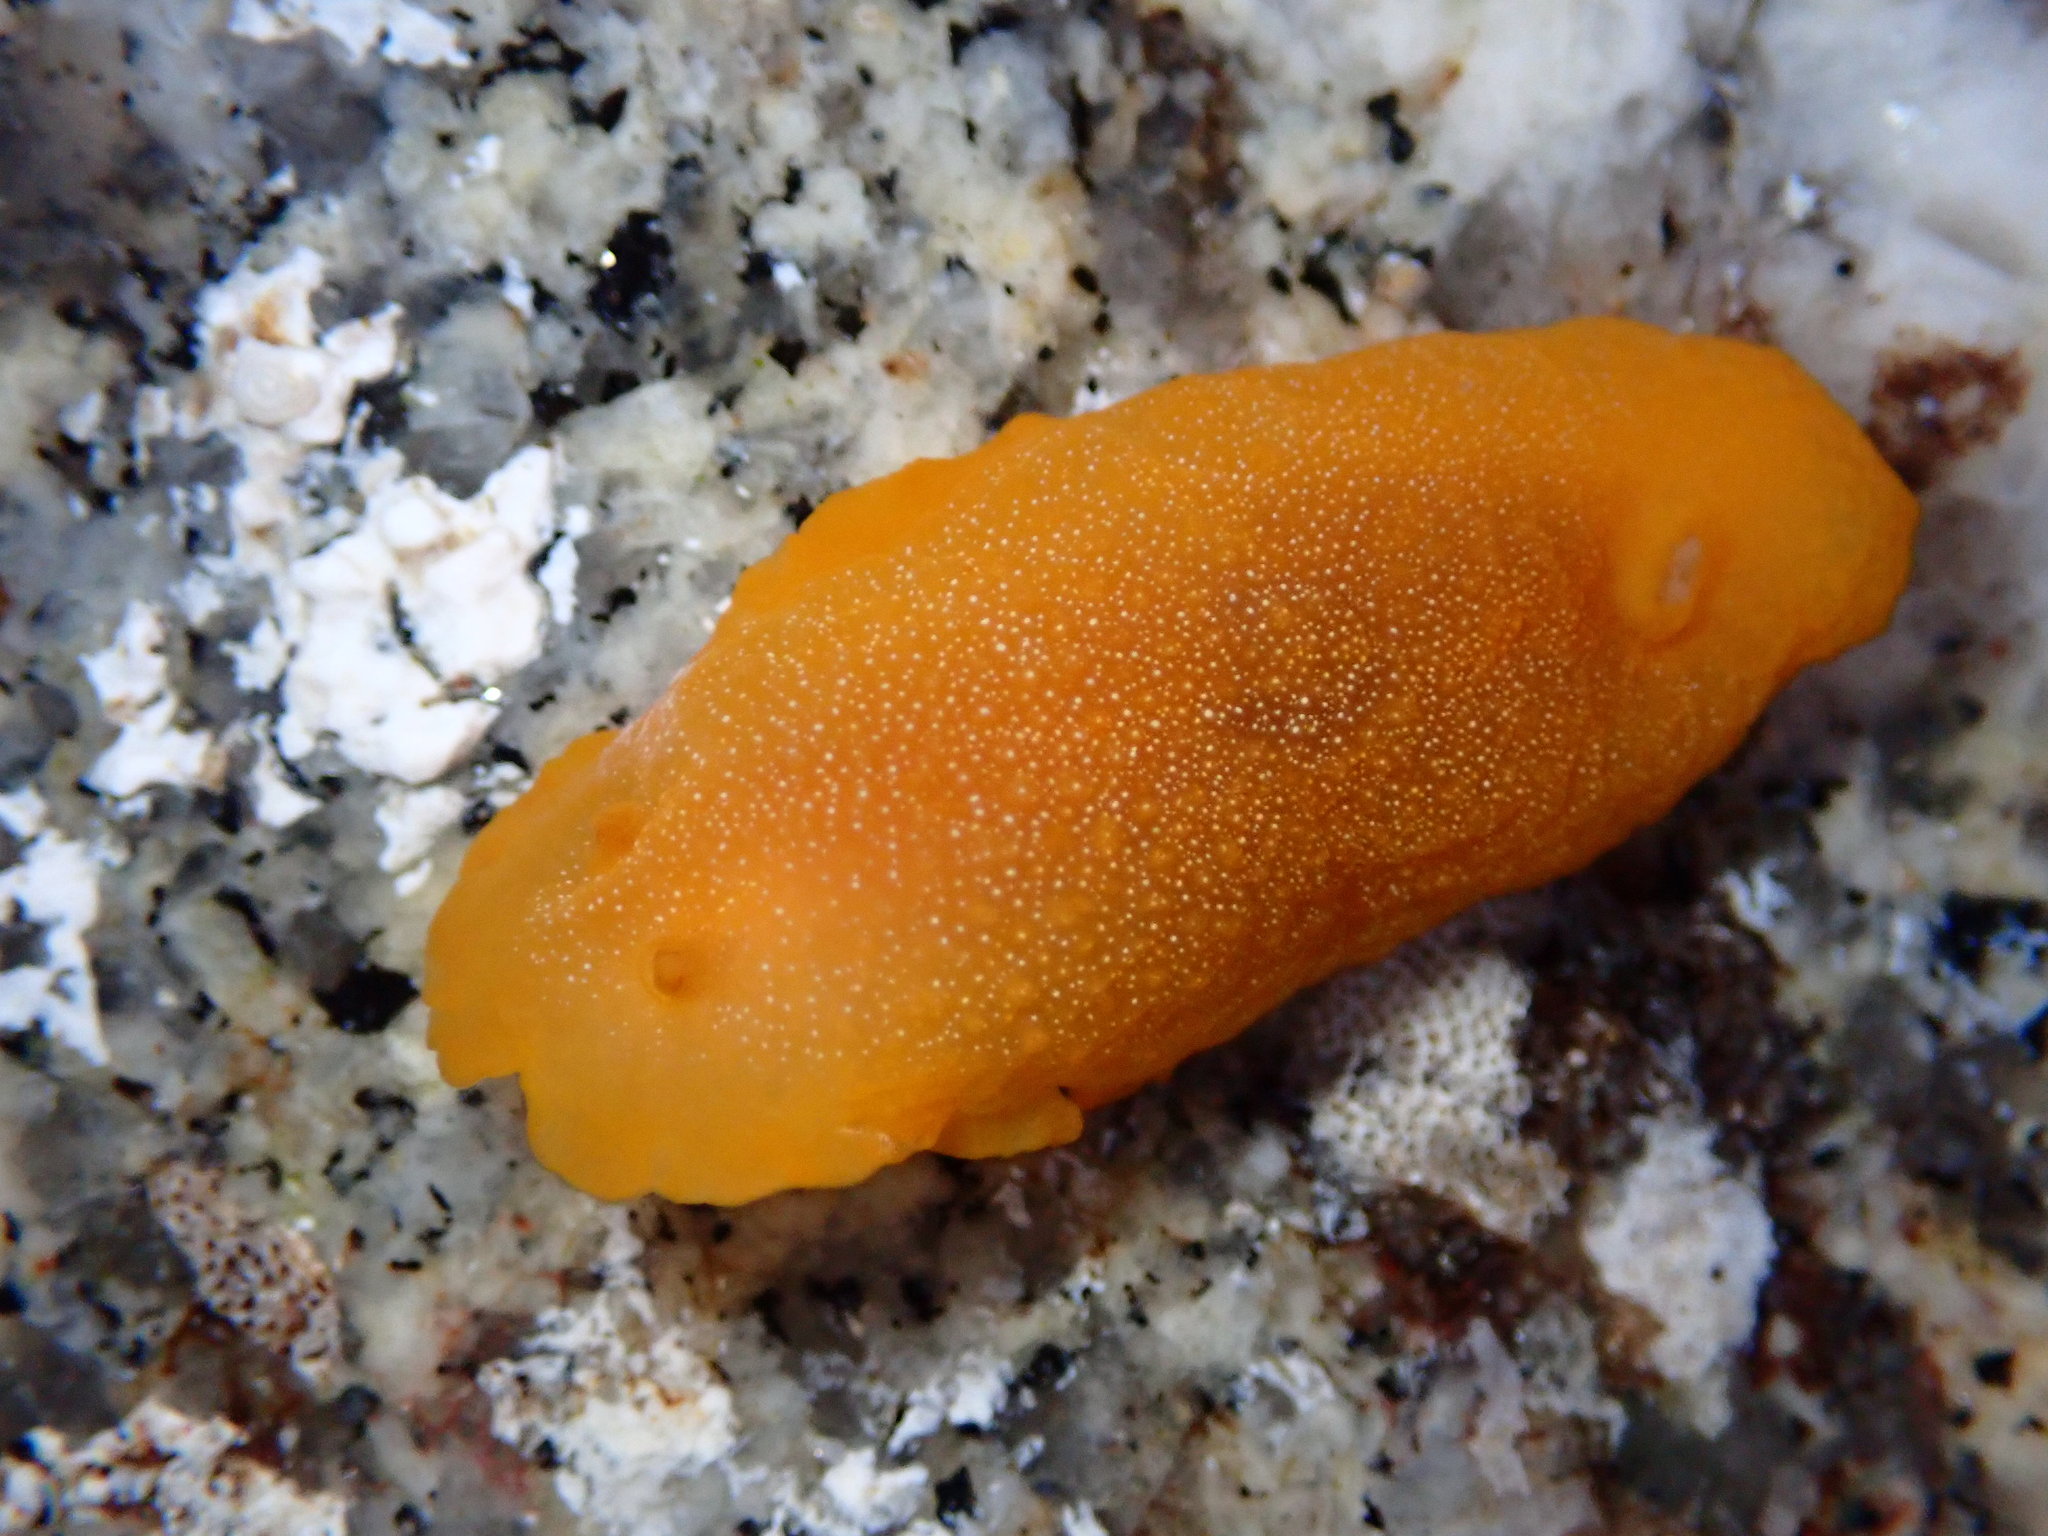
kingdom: Animalia
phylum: Mollusca
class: Gastropoda
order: Nudibranchia
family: Dendrodorididae
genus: Doriopsilla
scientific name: Doriopsilla albopunctata
